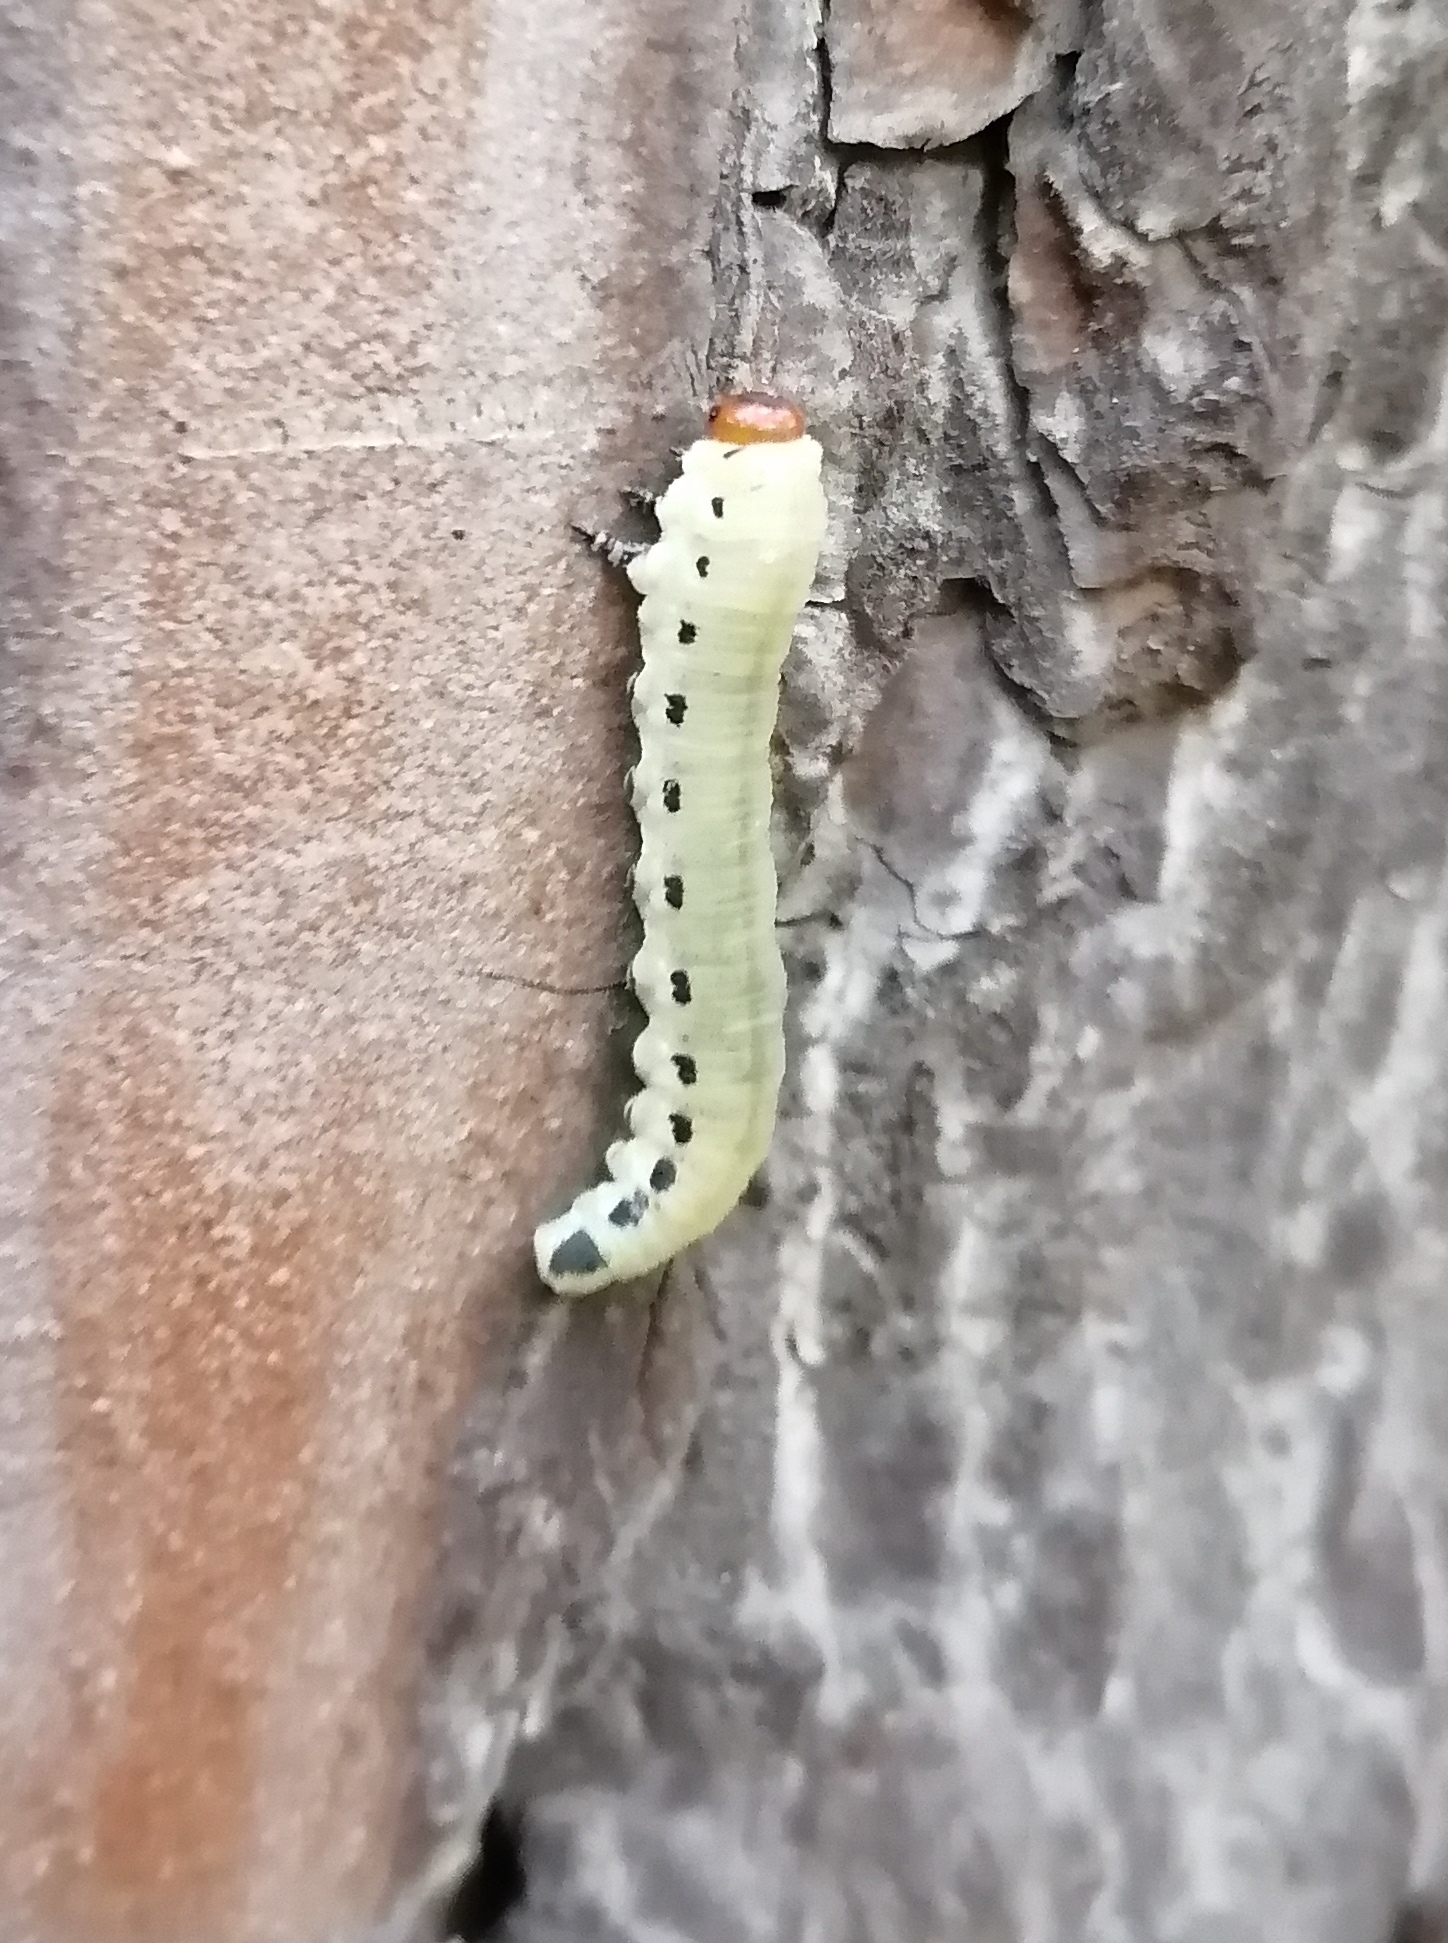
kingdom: Animalia
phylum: Arthropoda
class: Insecta
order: Hymenoptera
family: Diprionidae
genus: Diprion
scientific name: Diprion pini
